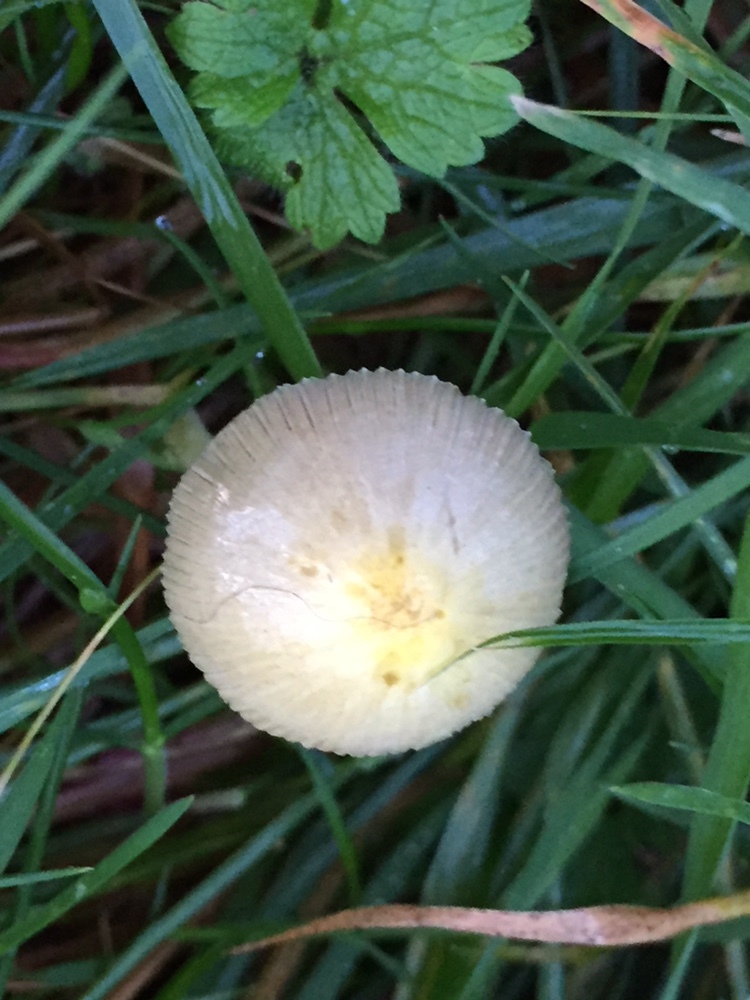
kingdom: Fungi
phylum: Basidiomycota
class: Agaricomycetes
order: Agaricales
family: Bolbitiaceae
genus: Bolbitius
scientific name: Bolbitius titubans
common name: Yellow fieldcap
